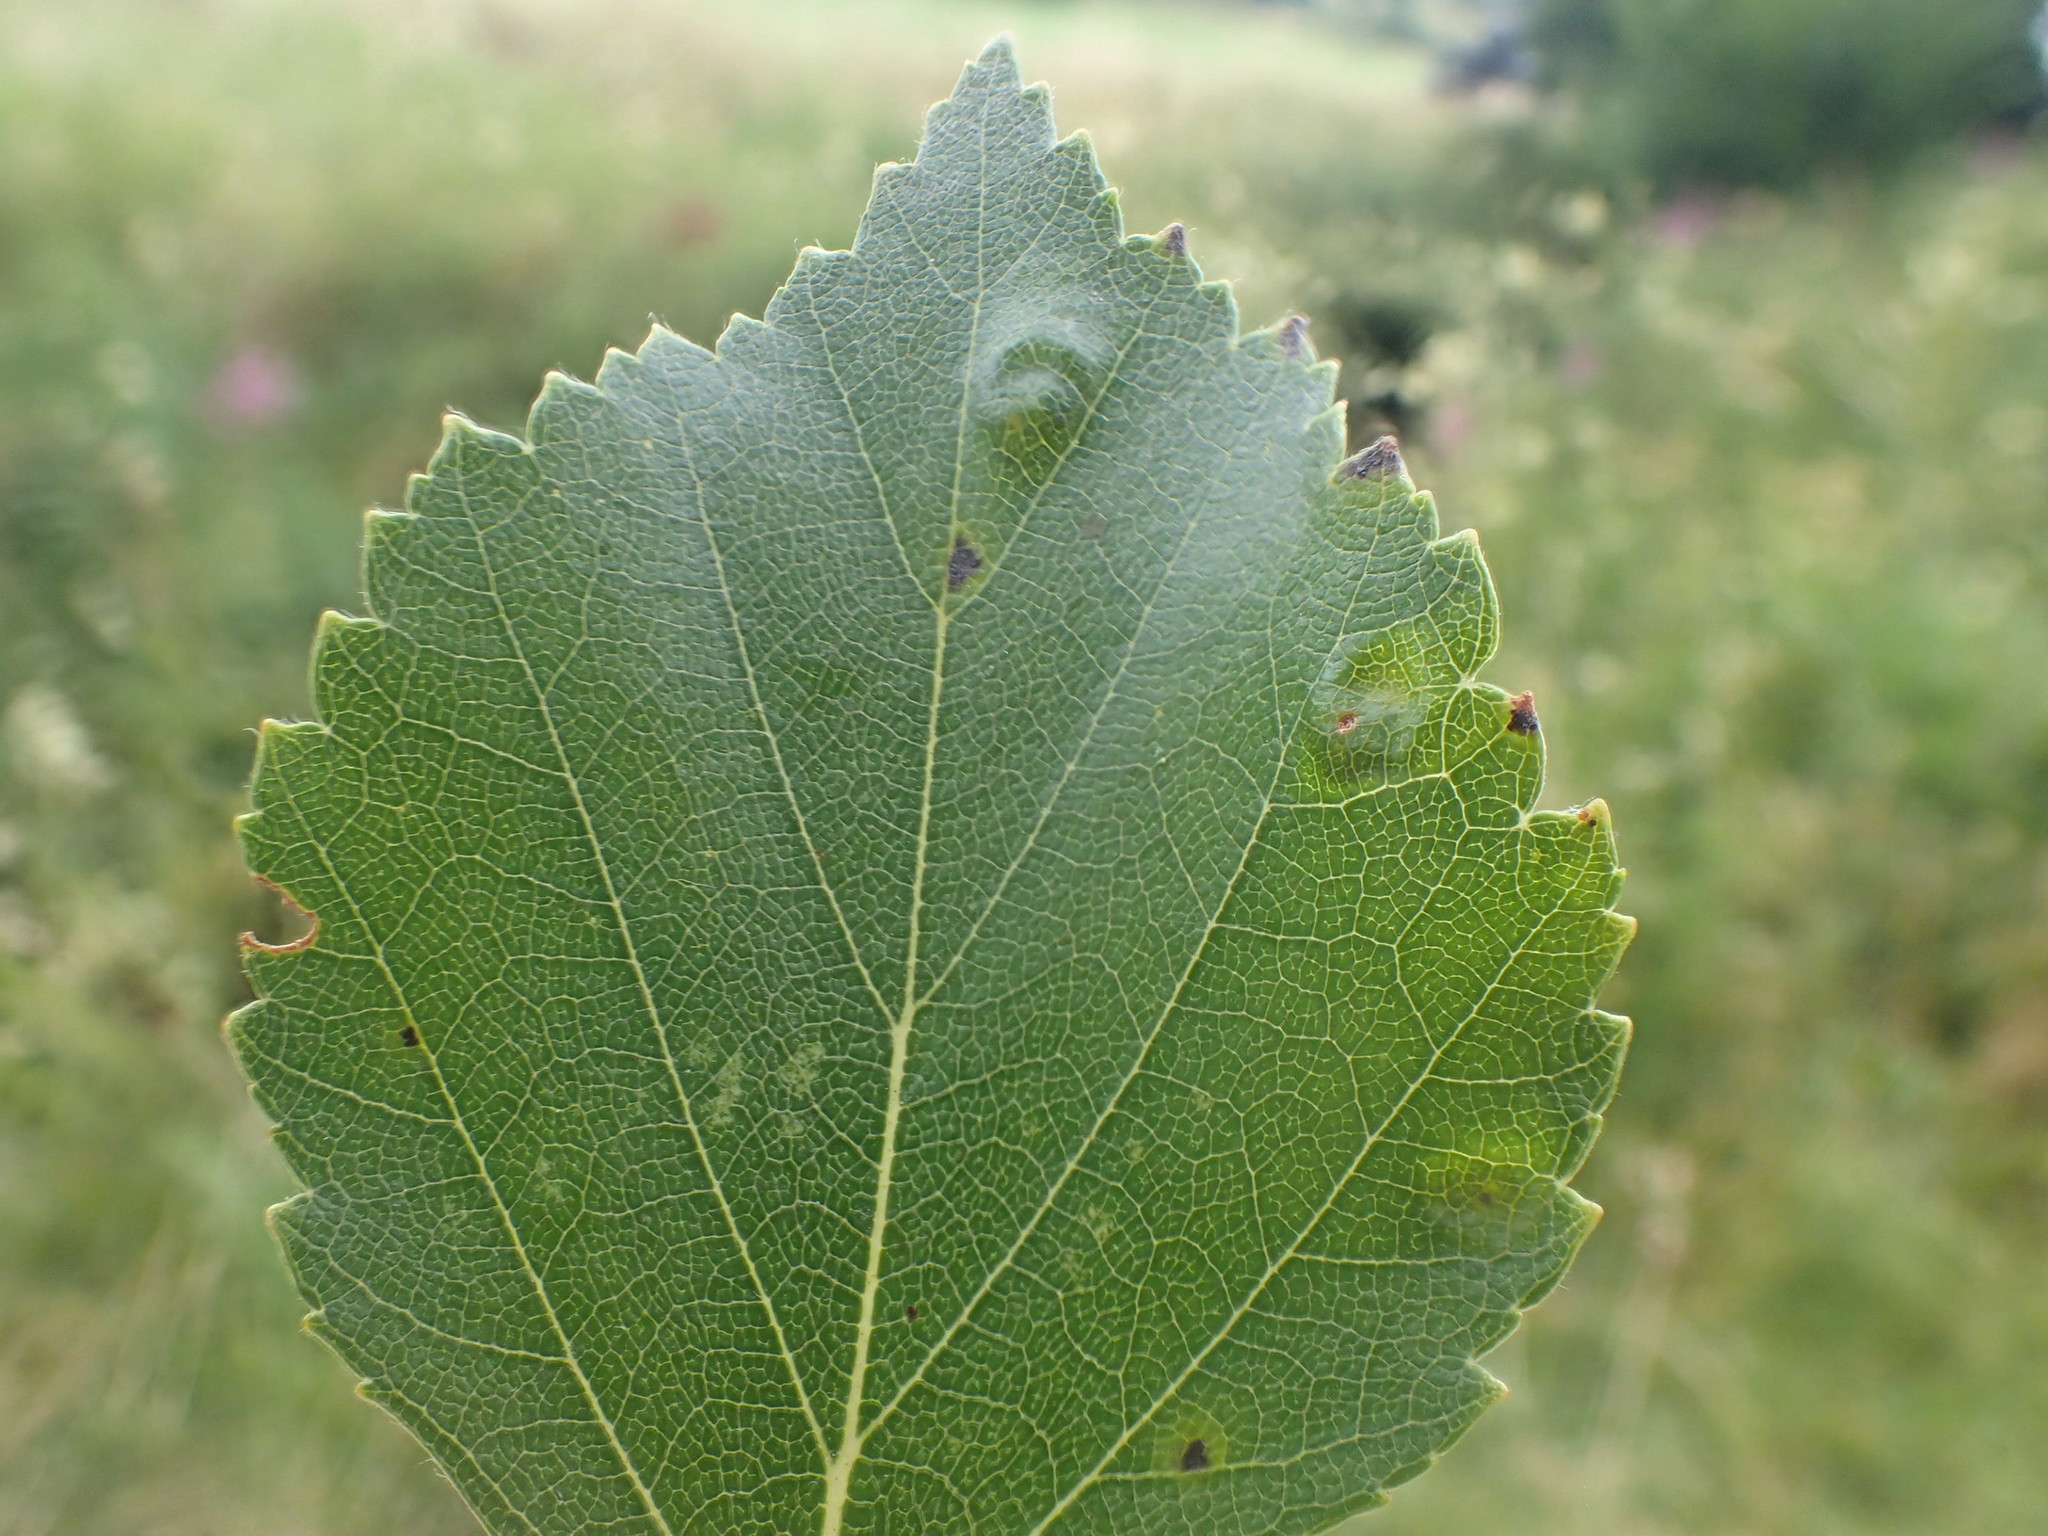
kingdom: Animalia
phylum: Arthropoda
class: Arachnida
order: Trombidiformes
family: Eriophyidae
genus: Acalitus
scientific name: Acalitus rudis
